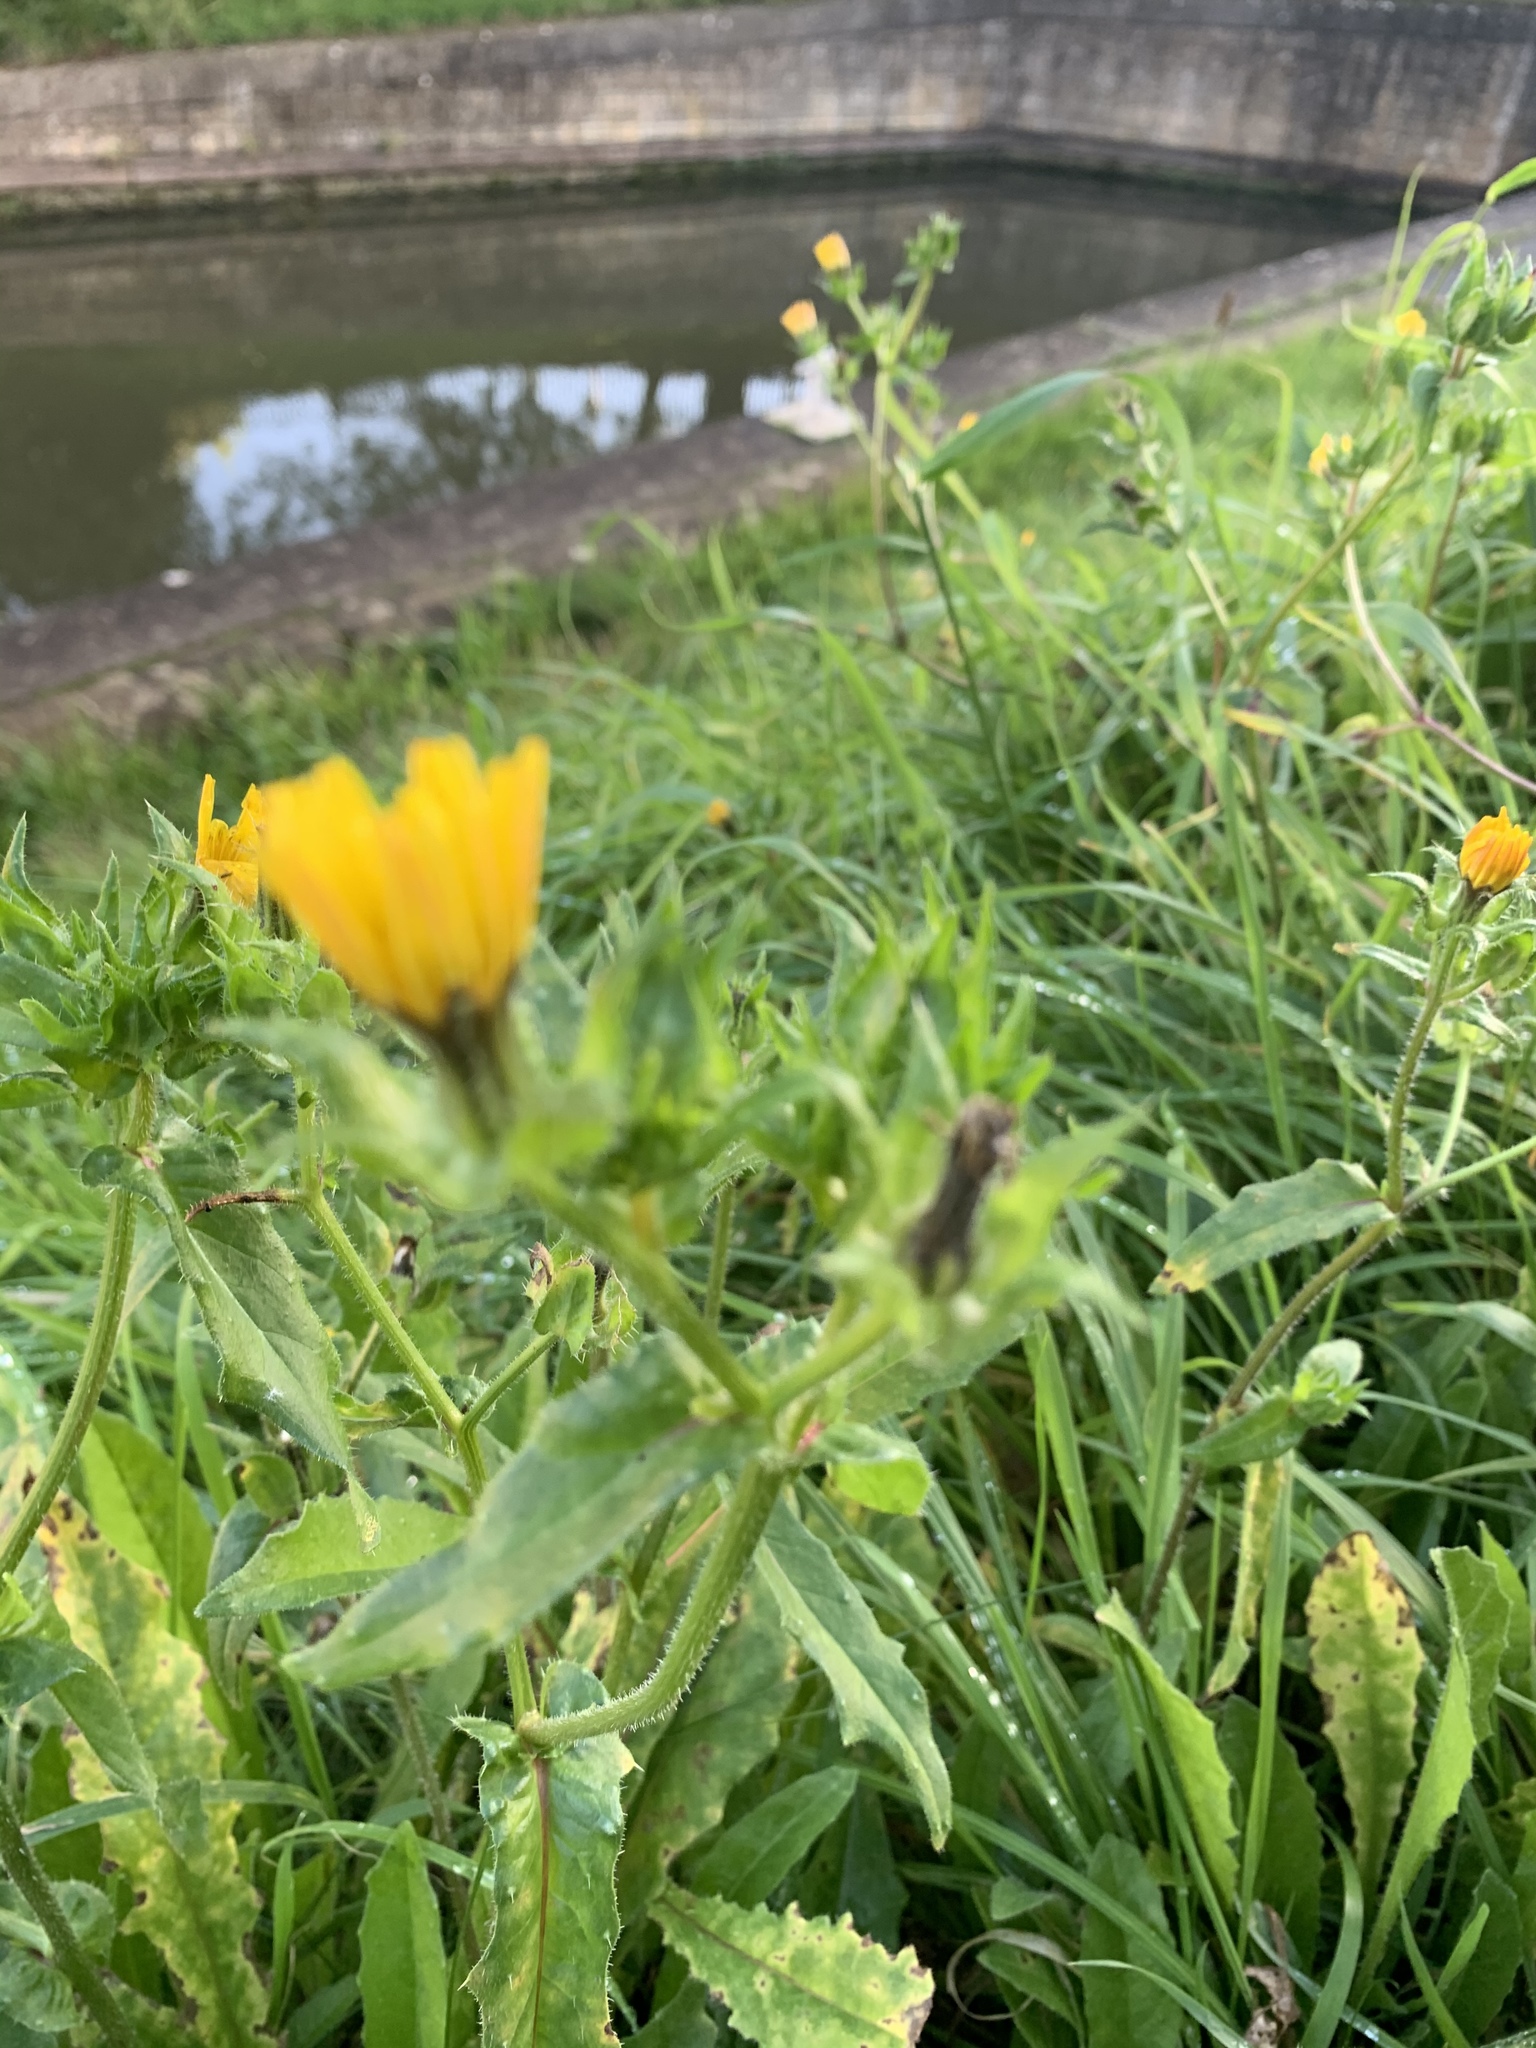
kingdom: Plantae
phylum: Tracheophyta
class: Magnoliopsida
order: Asterales
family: Asteraceae
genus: Helminthotheca
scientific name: Helminthotheca echioides
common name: Ox-tongue
